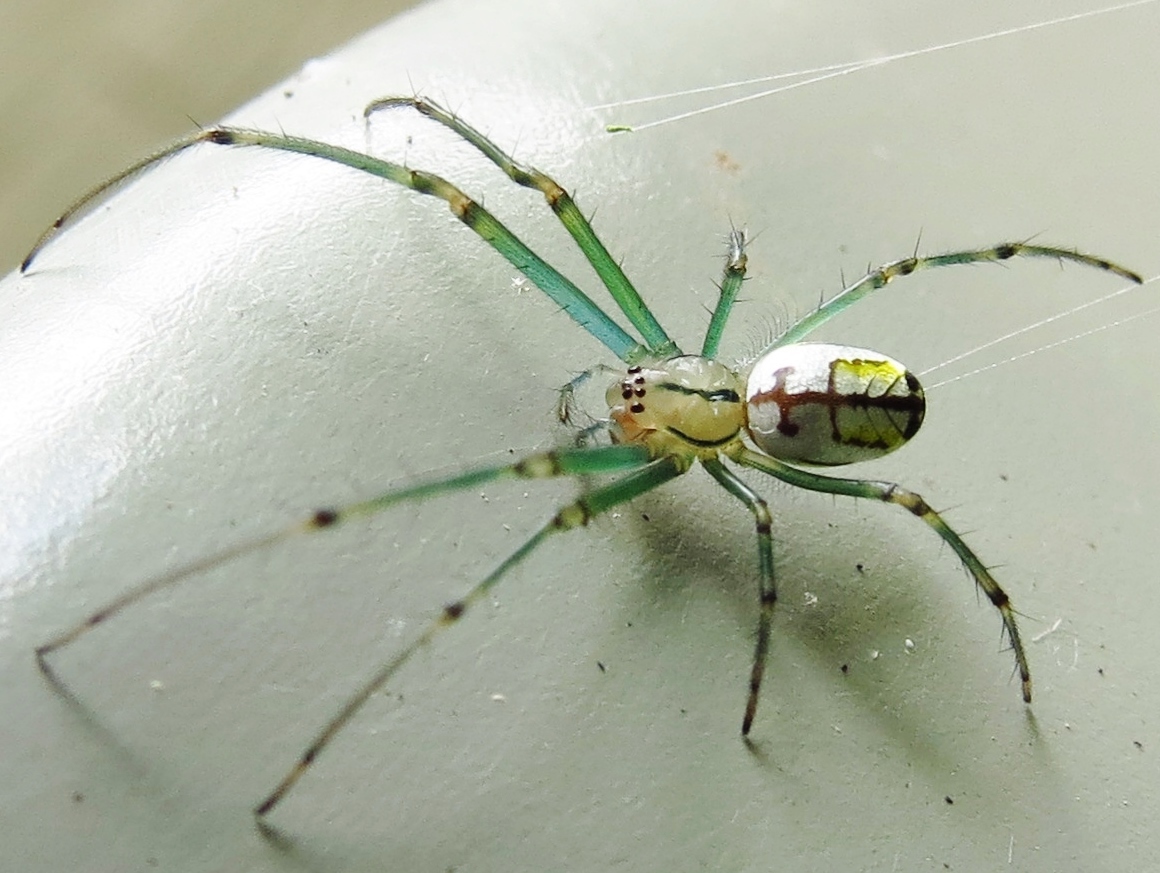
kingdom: Animalia
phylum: Arthropoda
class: Arachnida
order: Araneae
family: Tetragnathidae
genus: Leucauge
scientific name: Leucauge venusta
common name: Longjawed orb weavers
